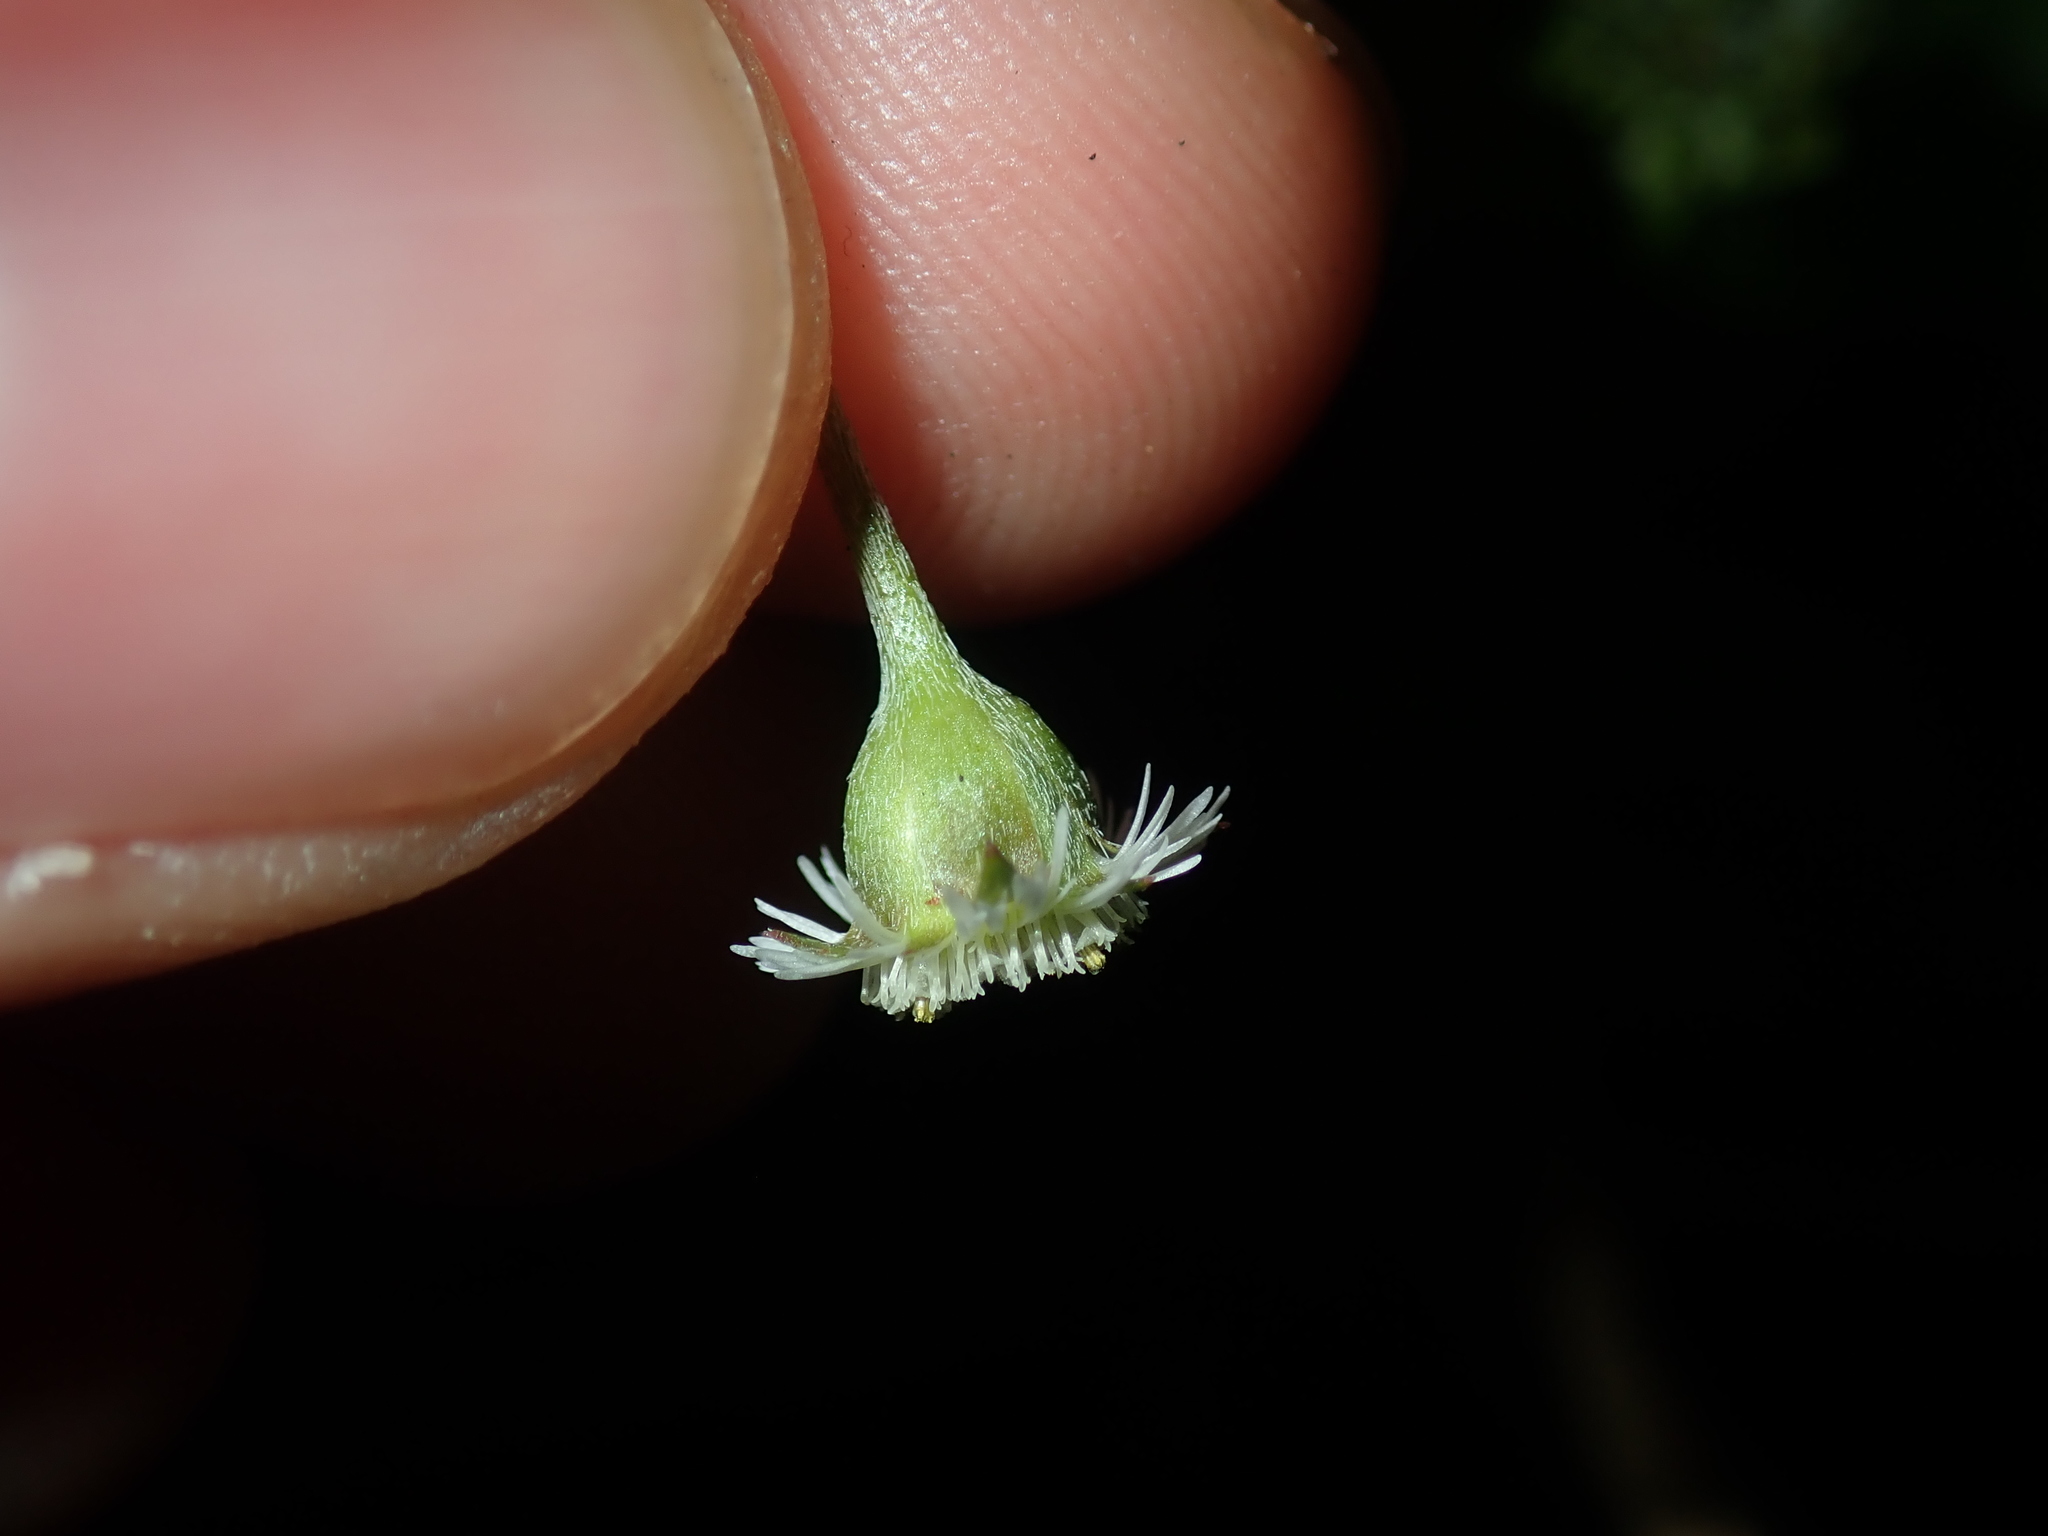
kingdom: Plantae
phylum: Tracheophyta
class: Magnoliopsida
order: Asterales
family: Asteraceae
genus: Eclipta
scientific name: Eclipta prostrata
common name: False daisy
